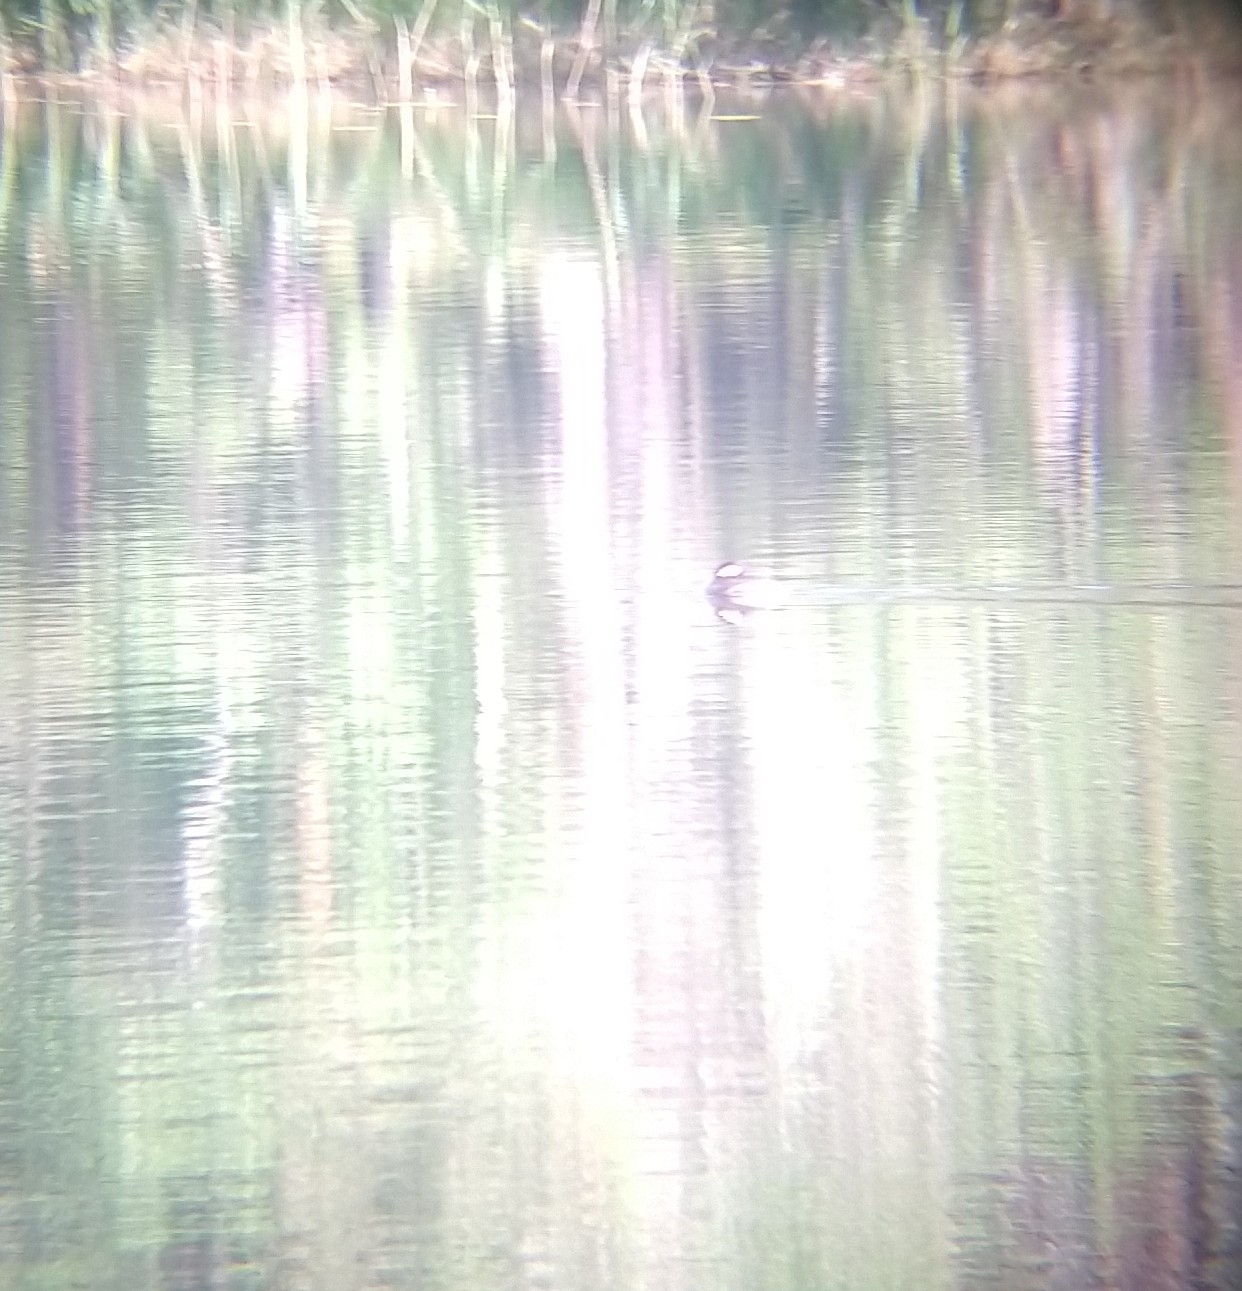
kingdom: Animalia
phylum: Chordata
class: Aves
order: Podicipediformes
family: Podicipedidae
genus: Podiceps
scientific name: Podiceps grisegena
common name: Red-necked grebe
